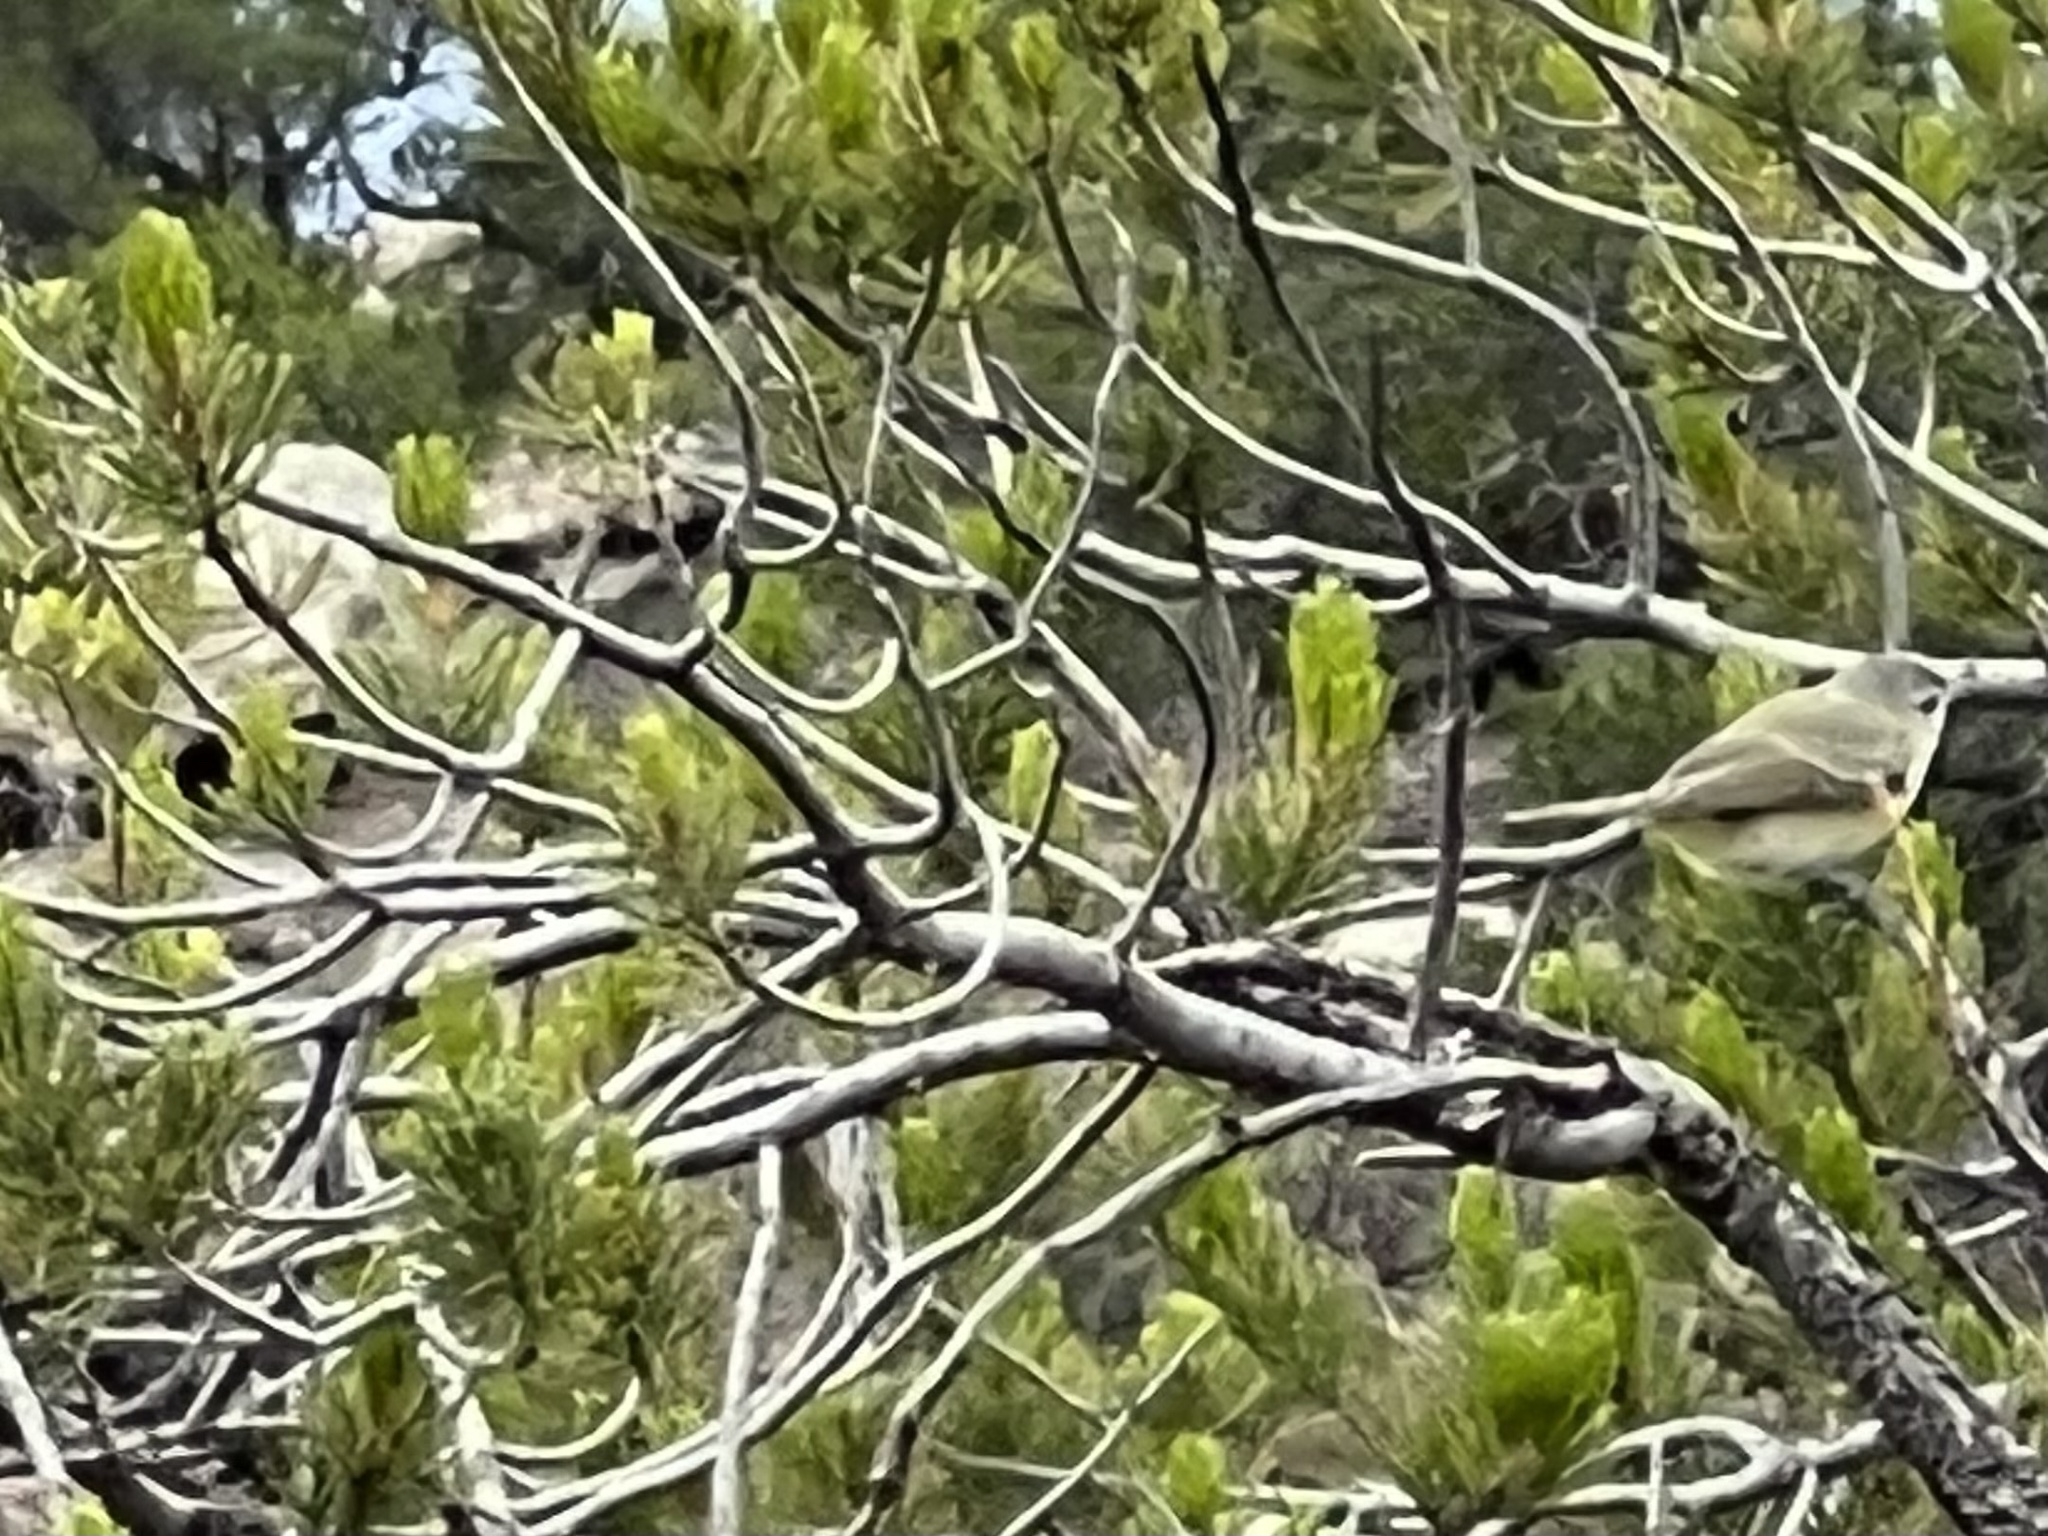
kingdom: Animalia
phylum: Chordata
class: Aves
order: Passeriformes
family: Vireonidae
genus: Vireo
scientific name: Vireo gilvus
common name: Warbling vireo
